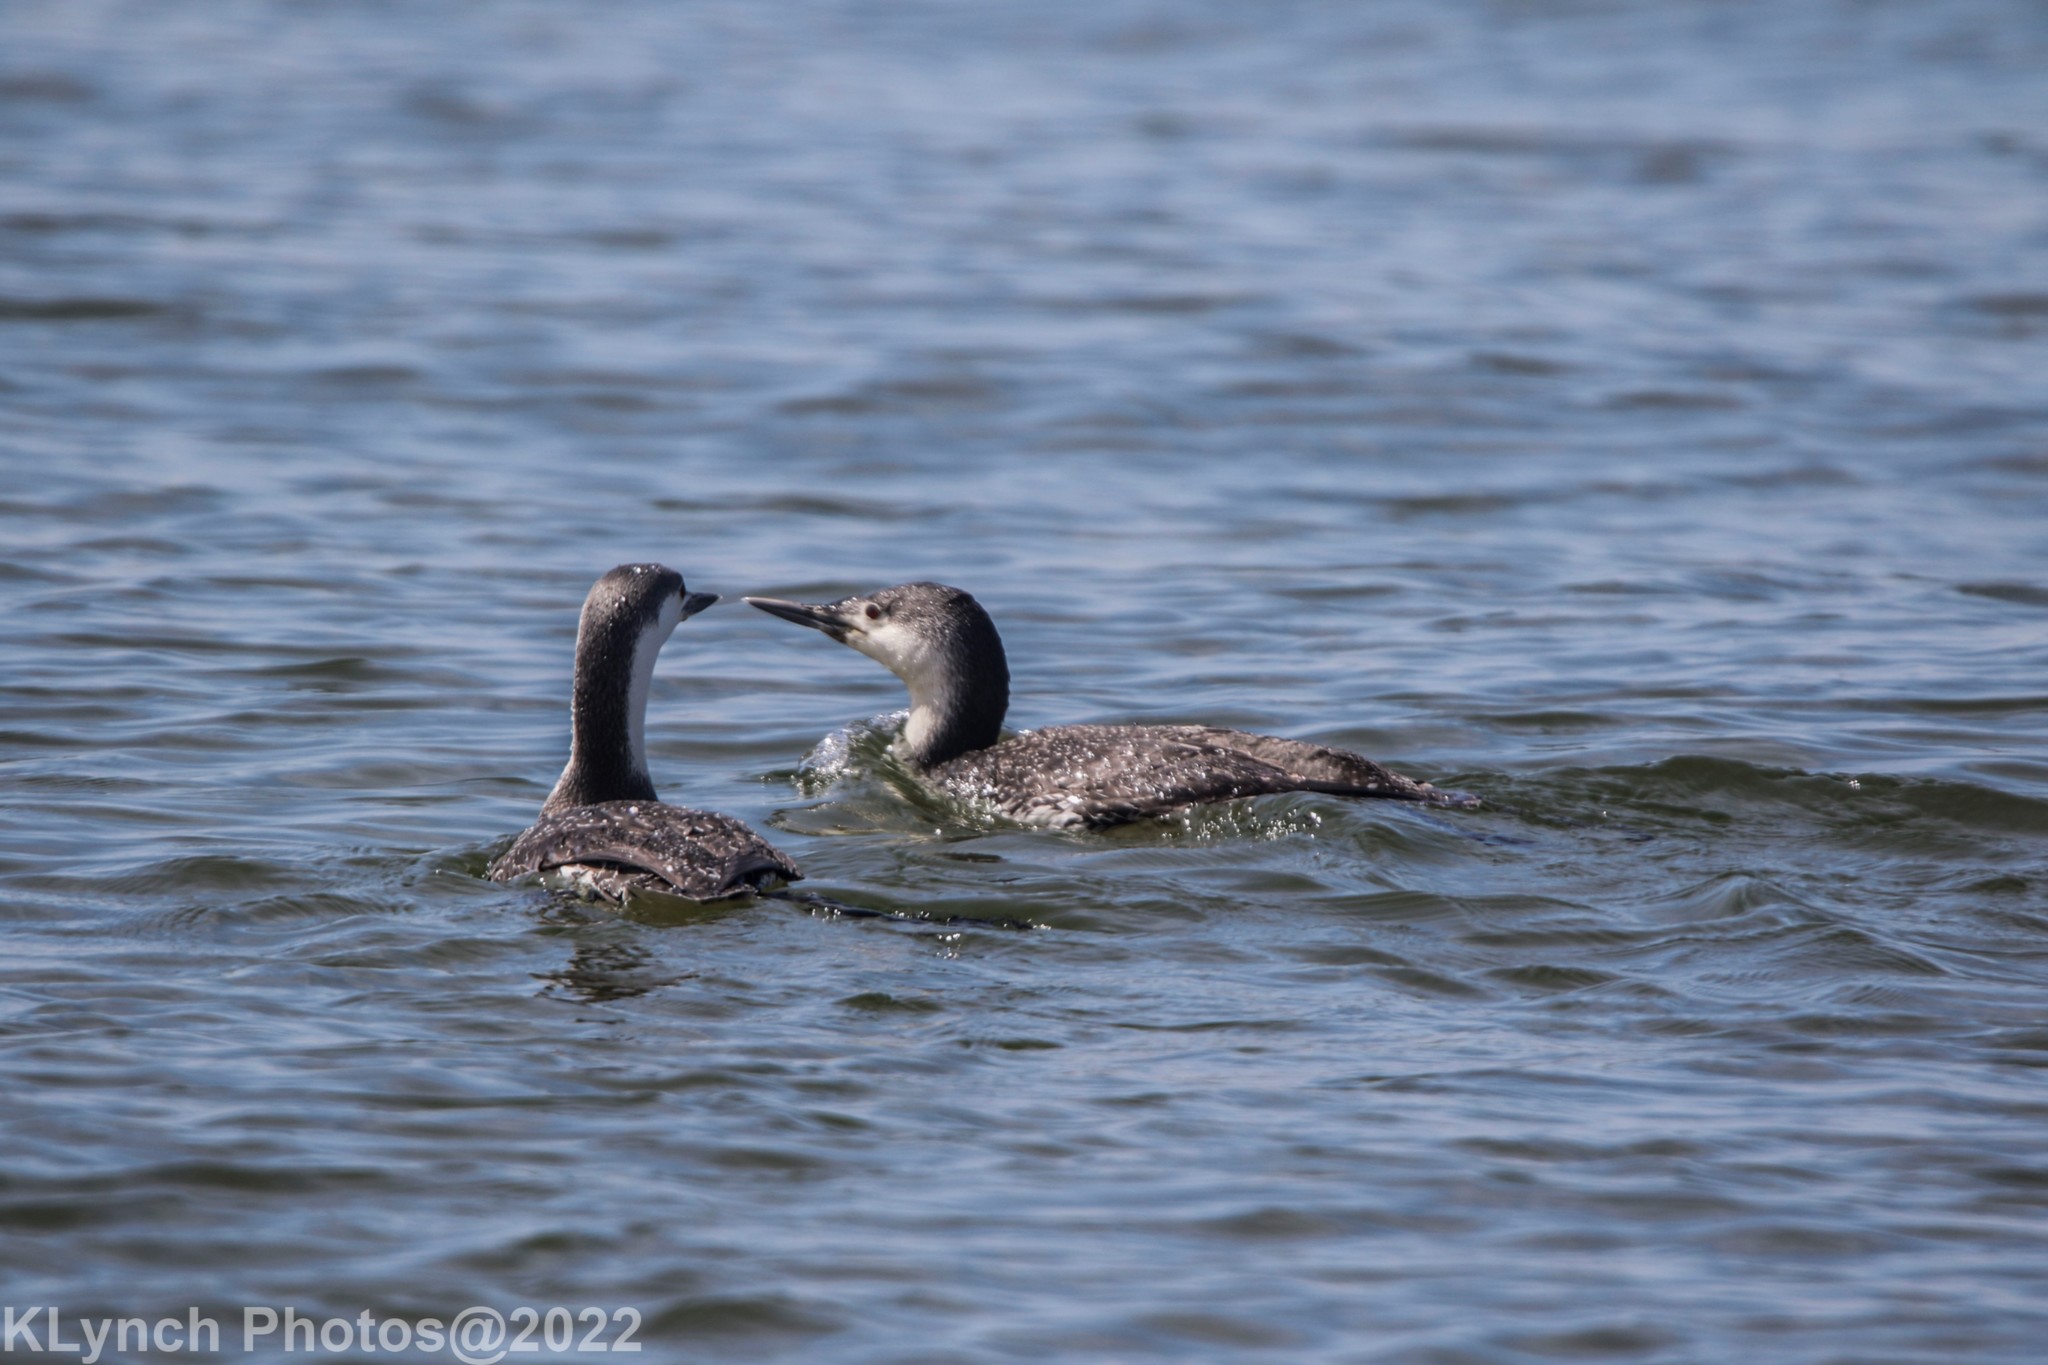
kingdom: Animalia
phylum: Chordata
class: Aves
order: Gaviiformes
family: Gaviidae
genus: Gavia
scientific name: Gavia stellata
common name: Red-throated loon
